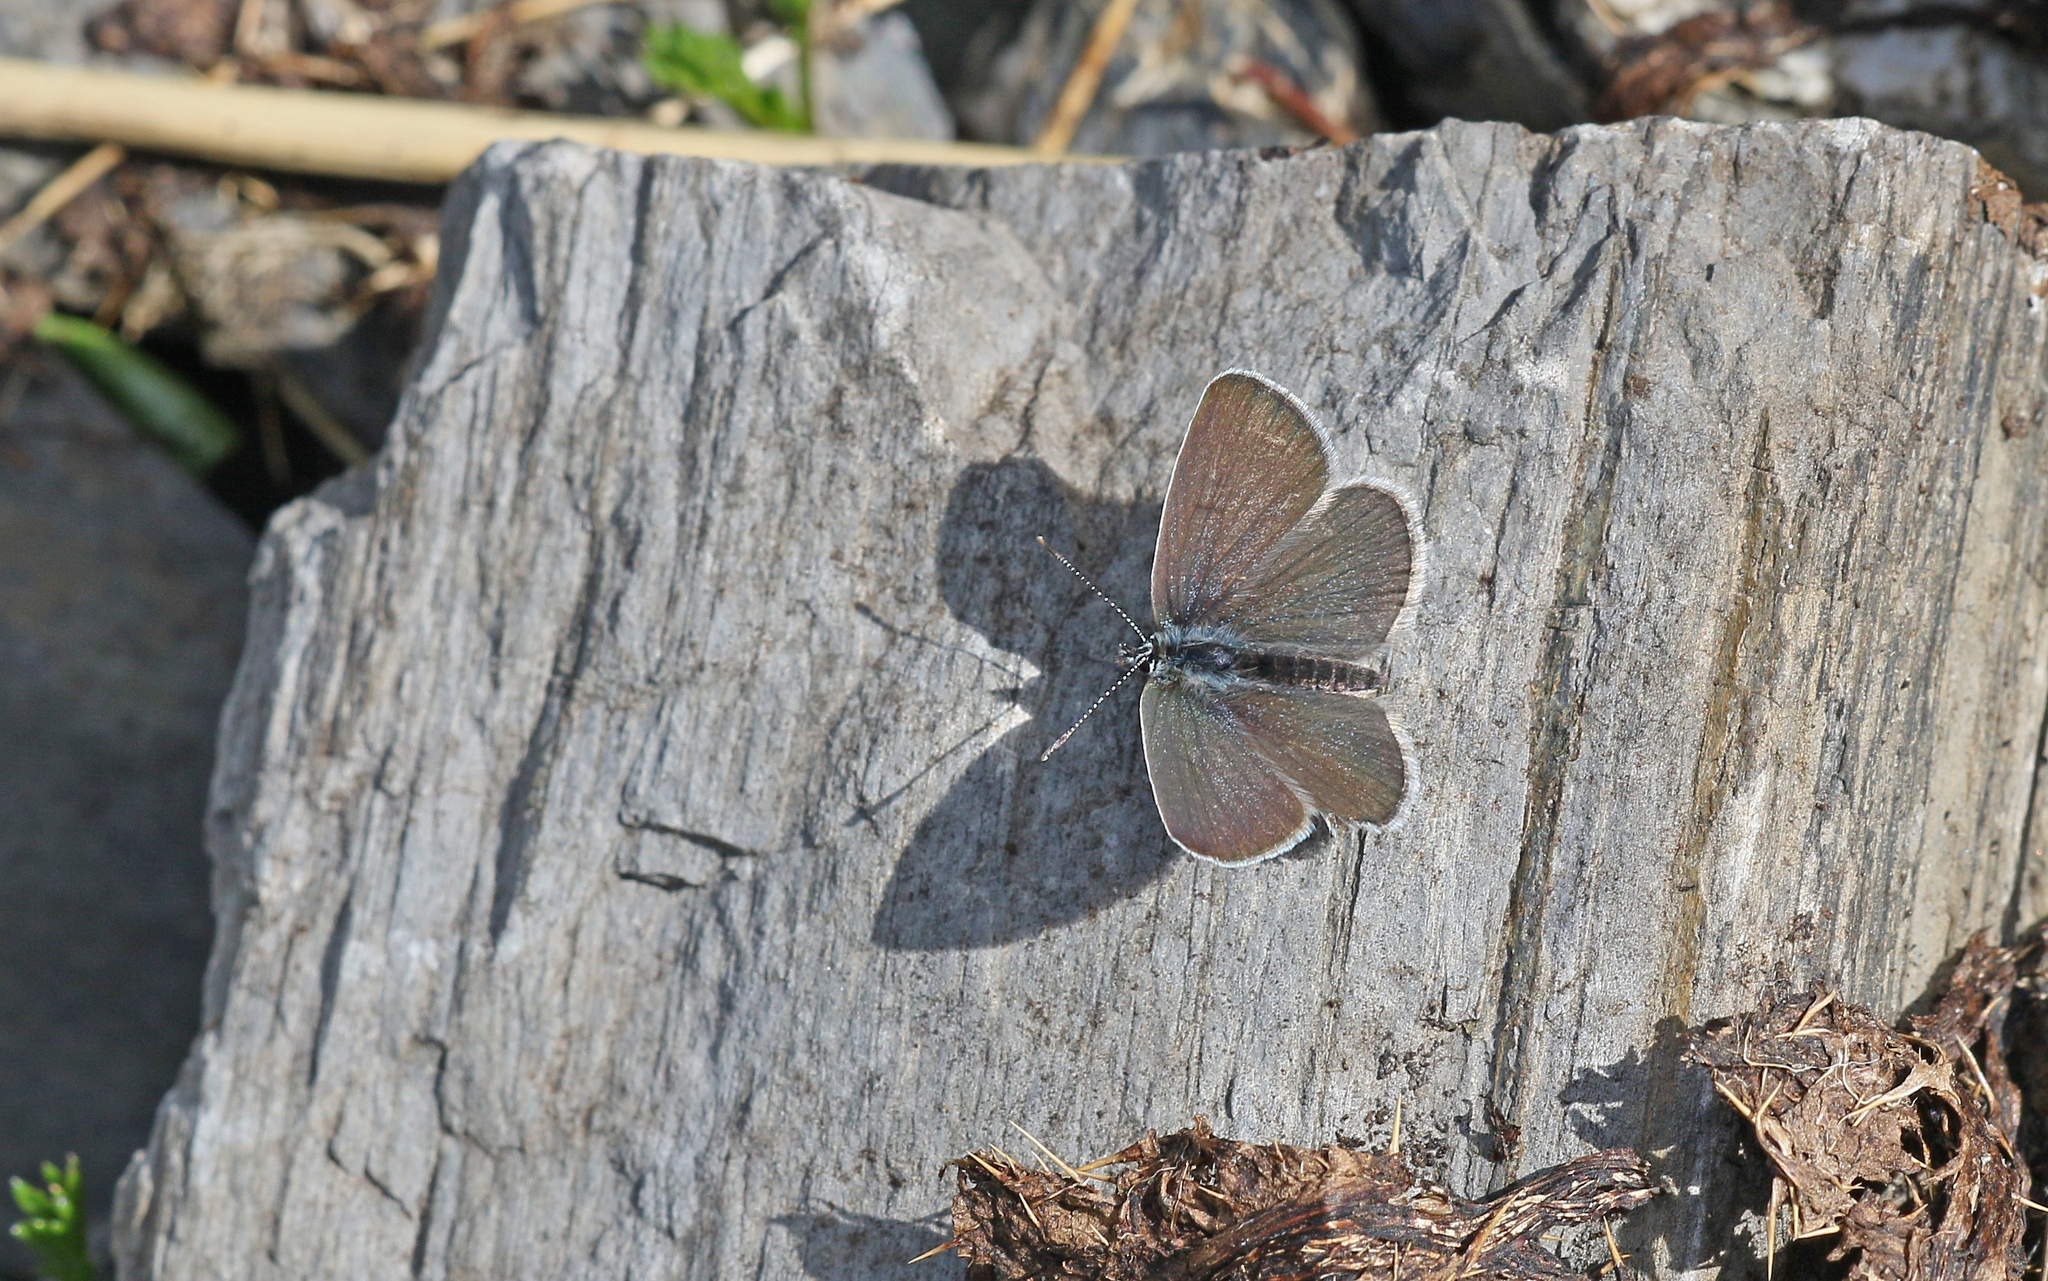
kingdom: Animalia
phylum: Arthropoda
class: Insecta
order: Lepidoptera
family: Lycaenidae
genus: Cupido
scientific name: Cupido minimus
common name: Small blue
